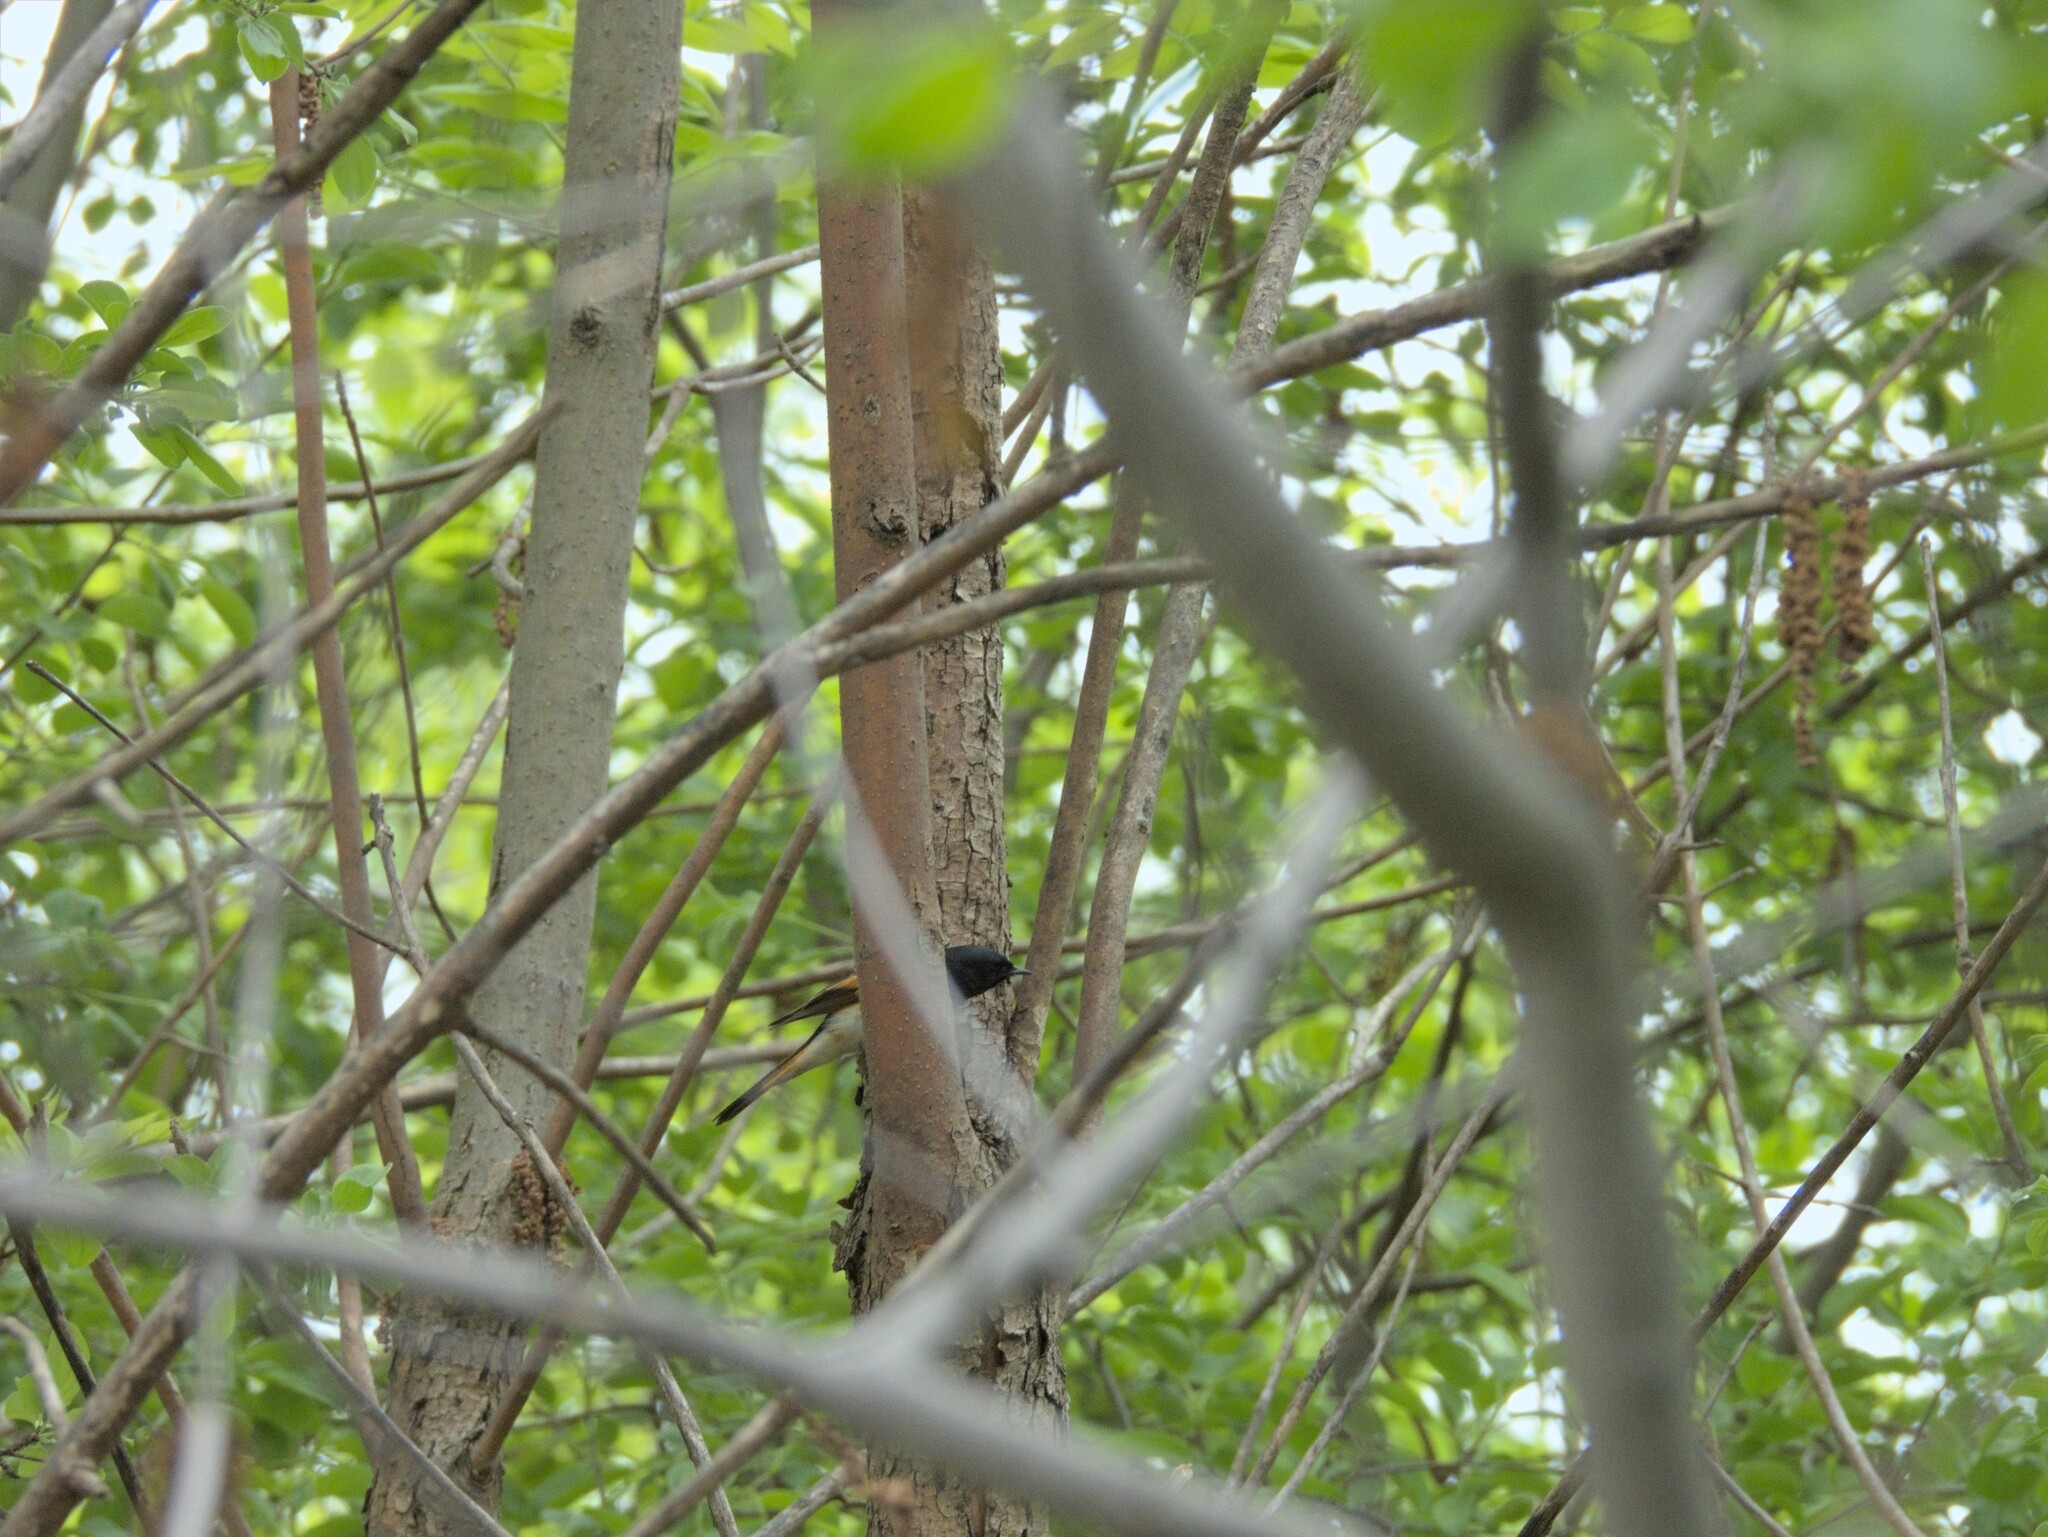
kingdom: Animalia
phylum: Chordata
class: Aves
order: Passeriformes
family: Parulidae
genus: Setophaga
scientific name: Setophaga ruticilla
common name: American redstart
